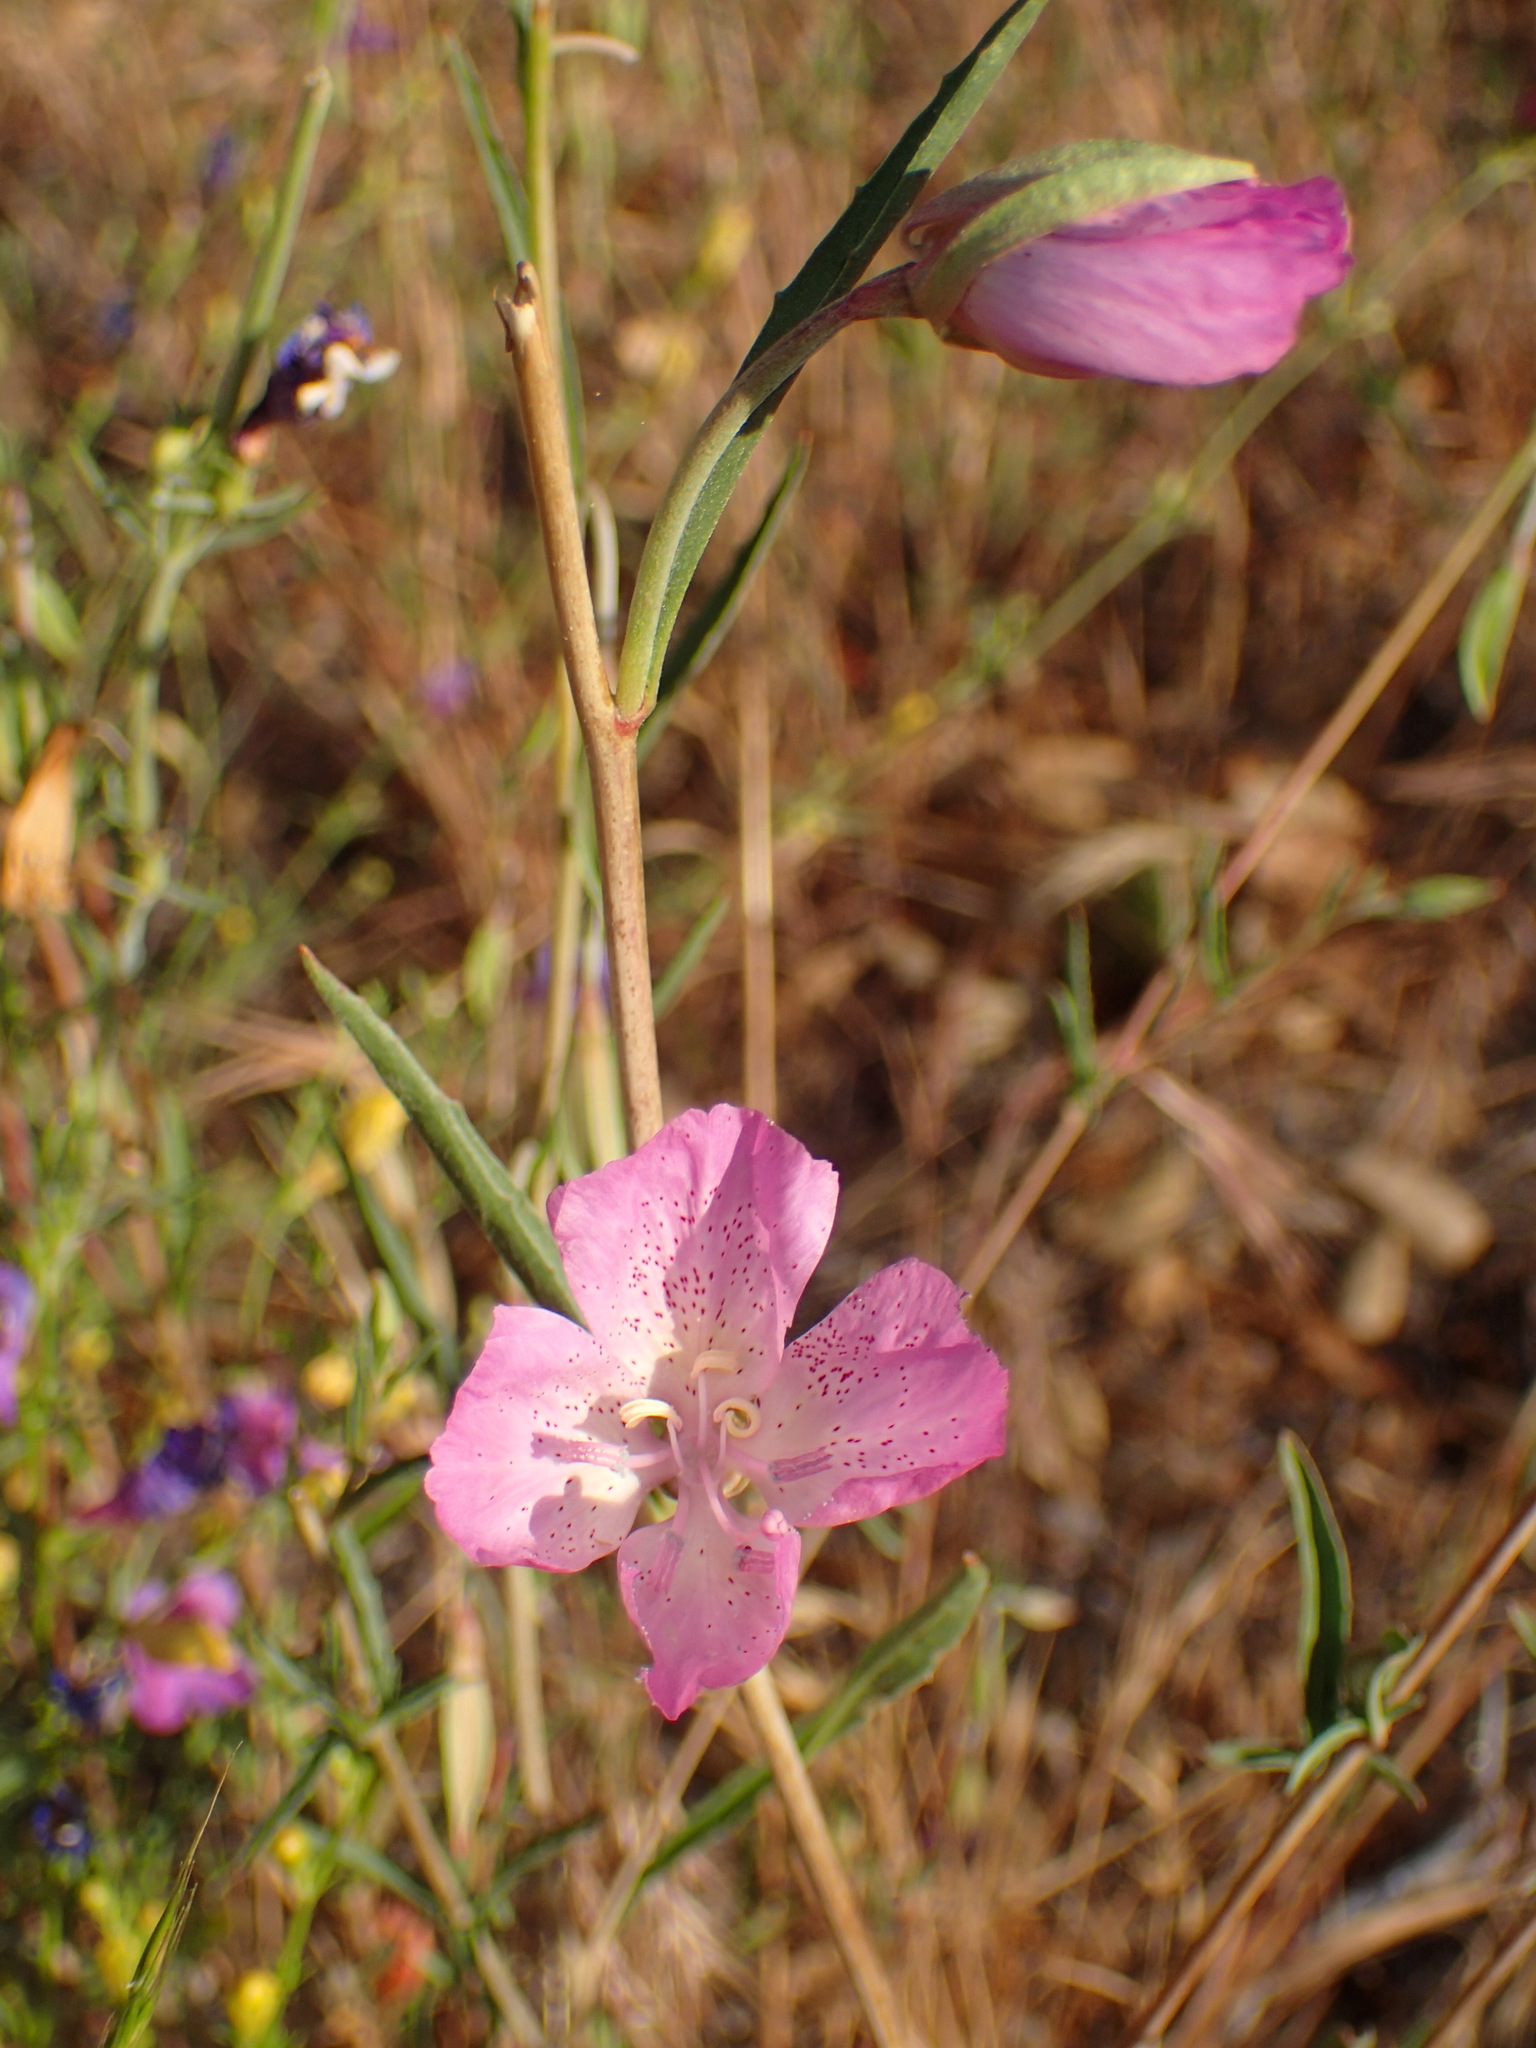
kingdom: Plantae
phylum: Tracheophyta
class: Magnoliopsida
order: Myrtales
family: Onagraceae
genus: Clarkia
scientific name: Clarkia bottae
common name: Punch-bowl godetia
